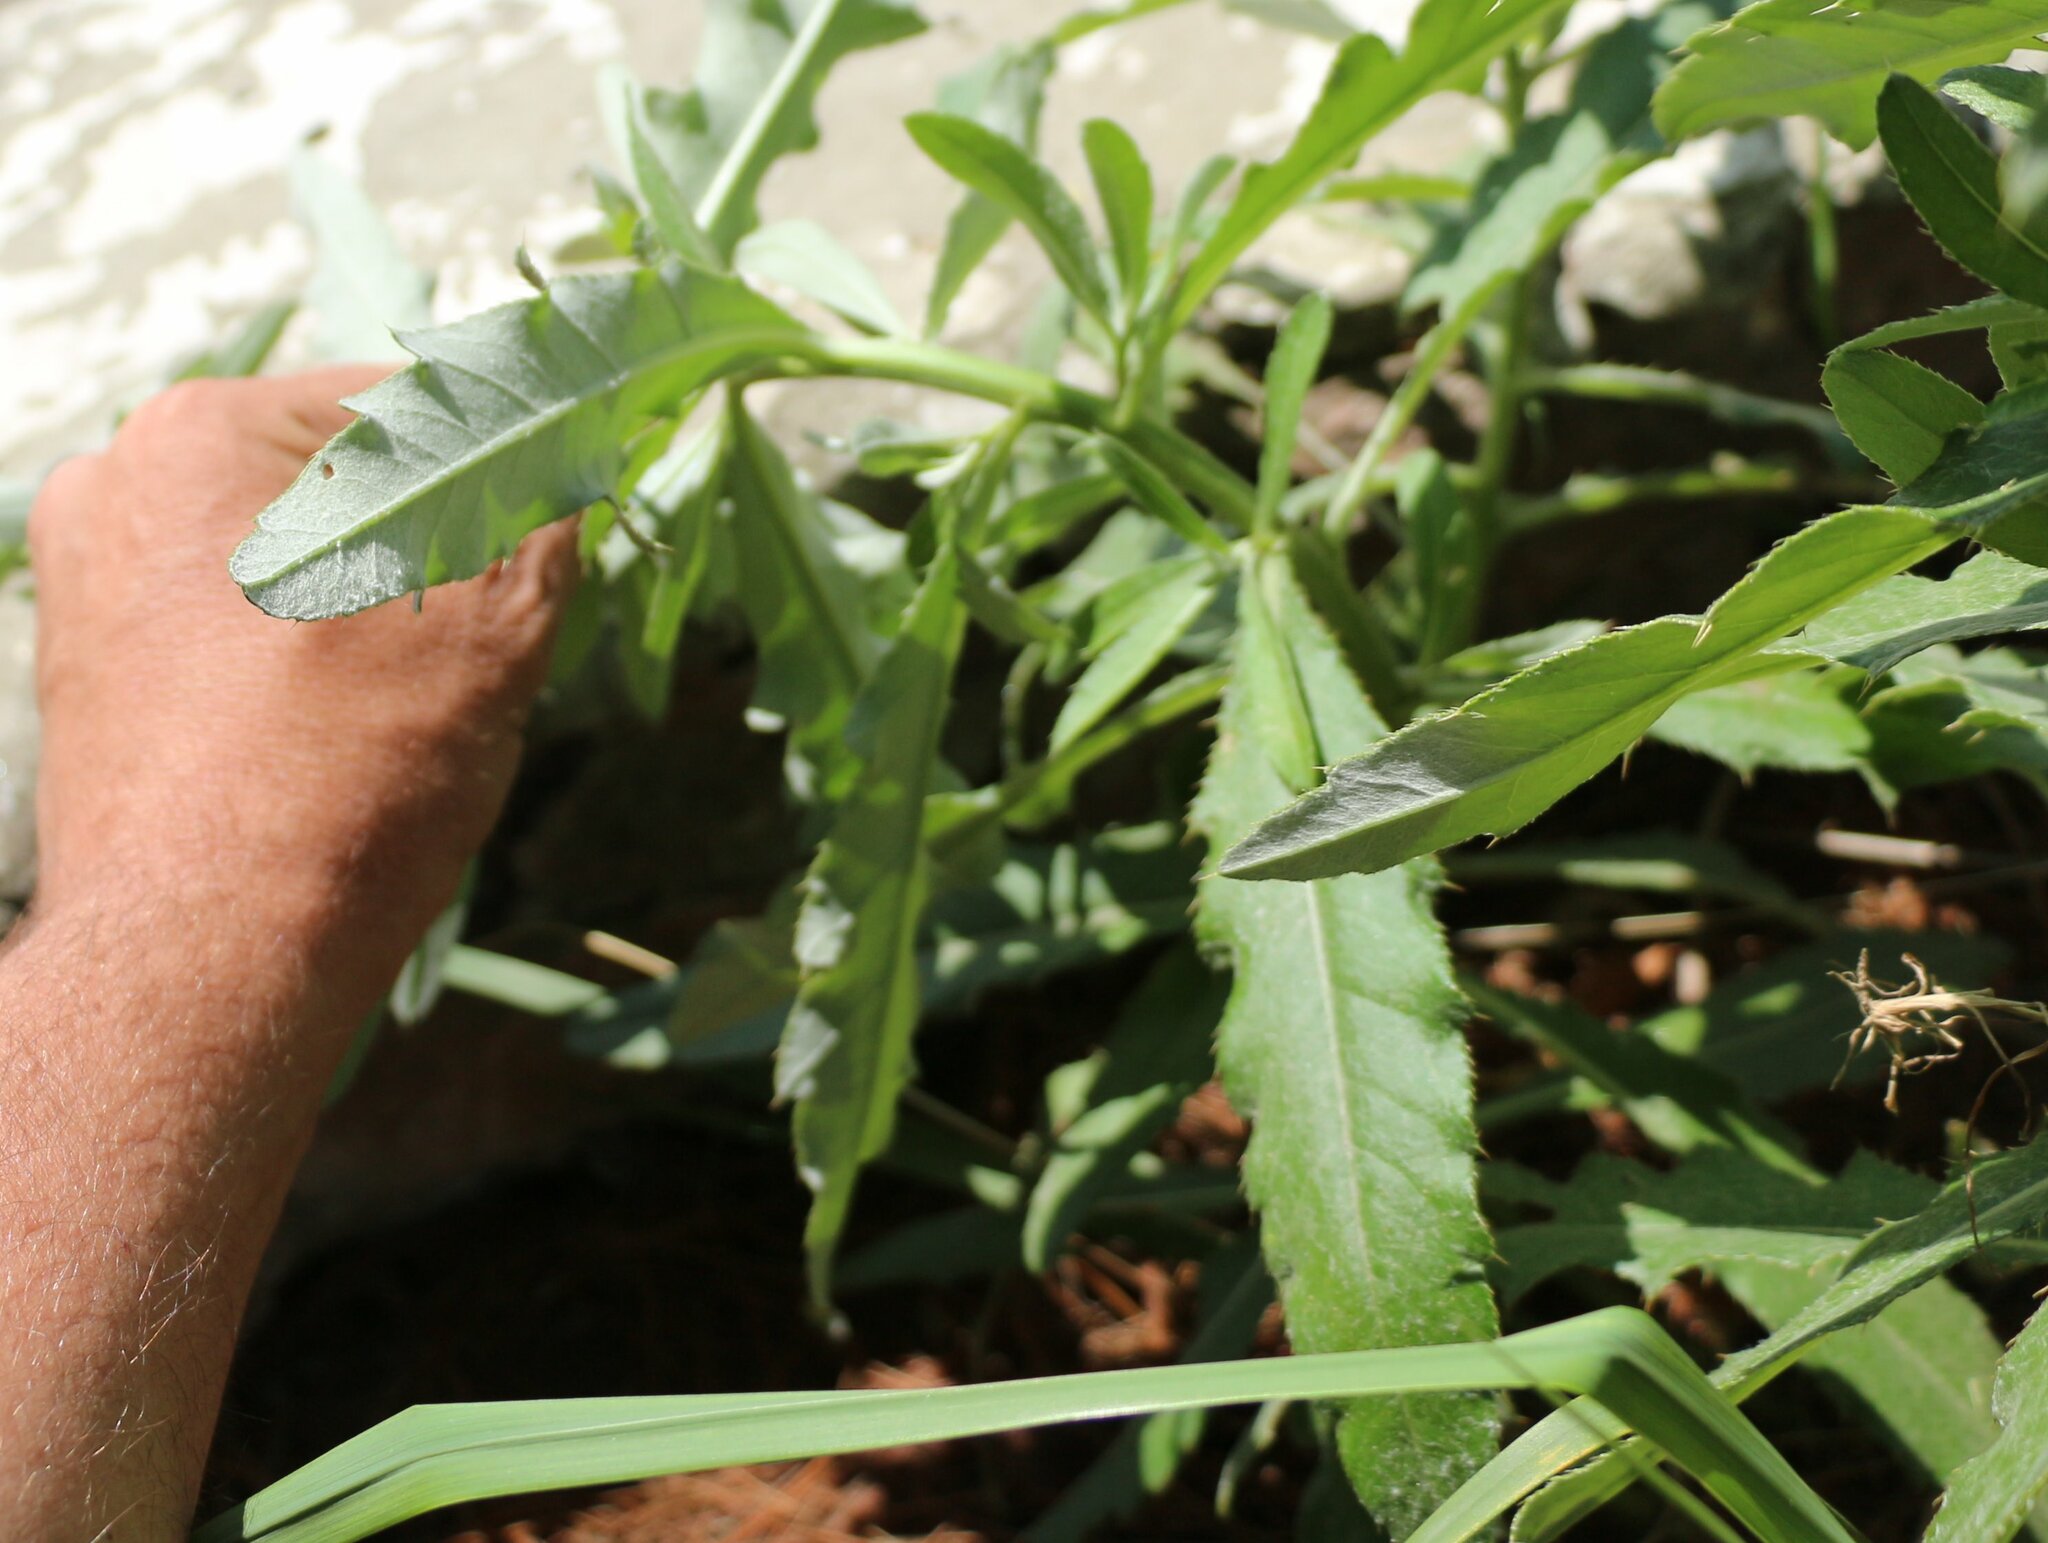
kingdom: Plantae
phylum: Tracheophyta
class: Magnoliopsida
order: Asterales
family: Asteraceae
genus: Cirsium
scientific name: Cirsium arvense
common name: Creeping thistle
